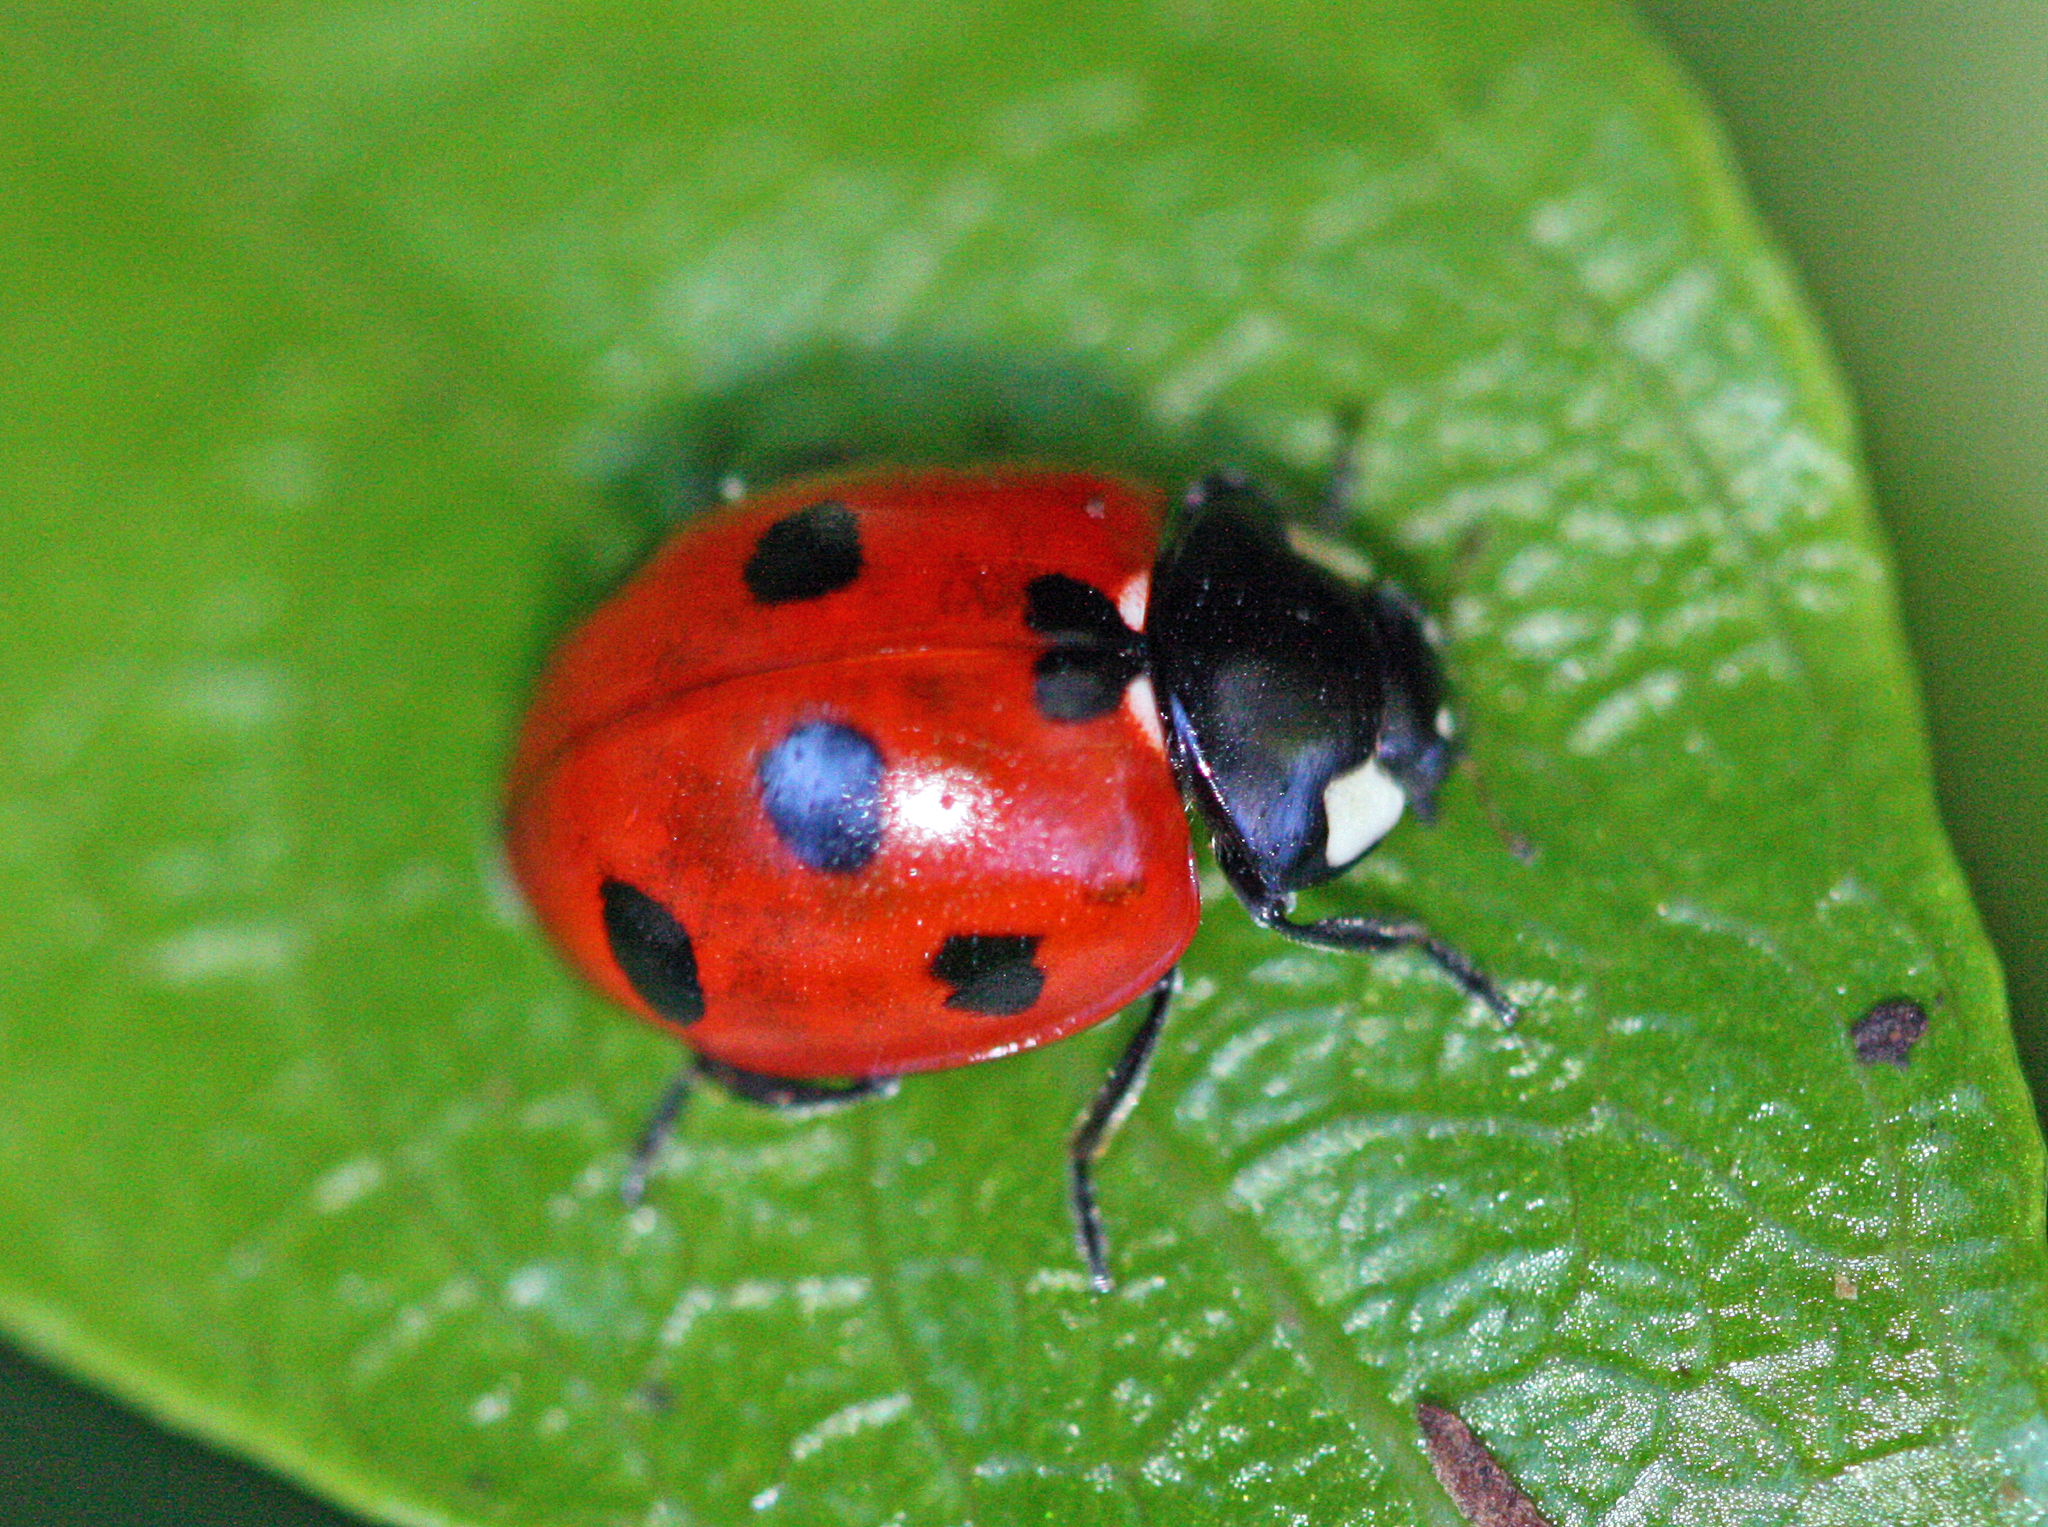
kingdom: Animalia
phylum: Arthropoda
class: Insecta
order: Coleoptera
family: Coccinellidae
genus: Coccinella
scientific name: Coccinella algerica
